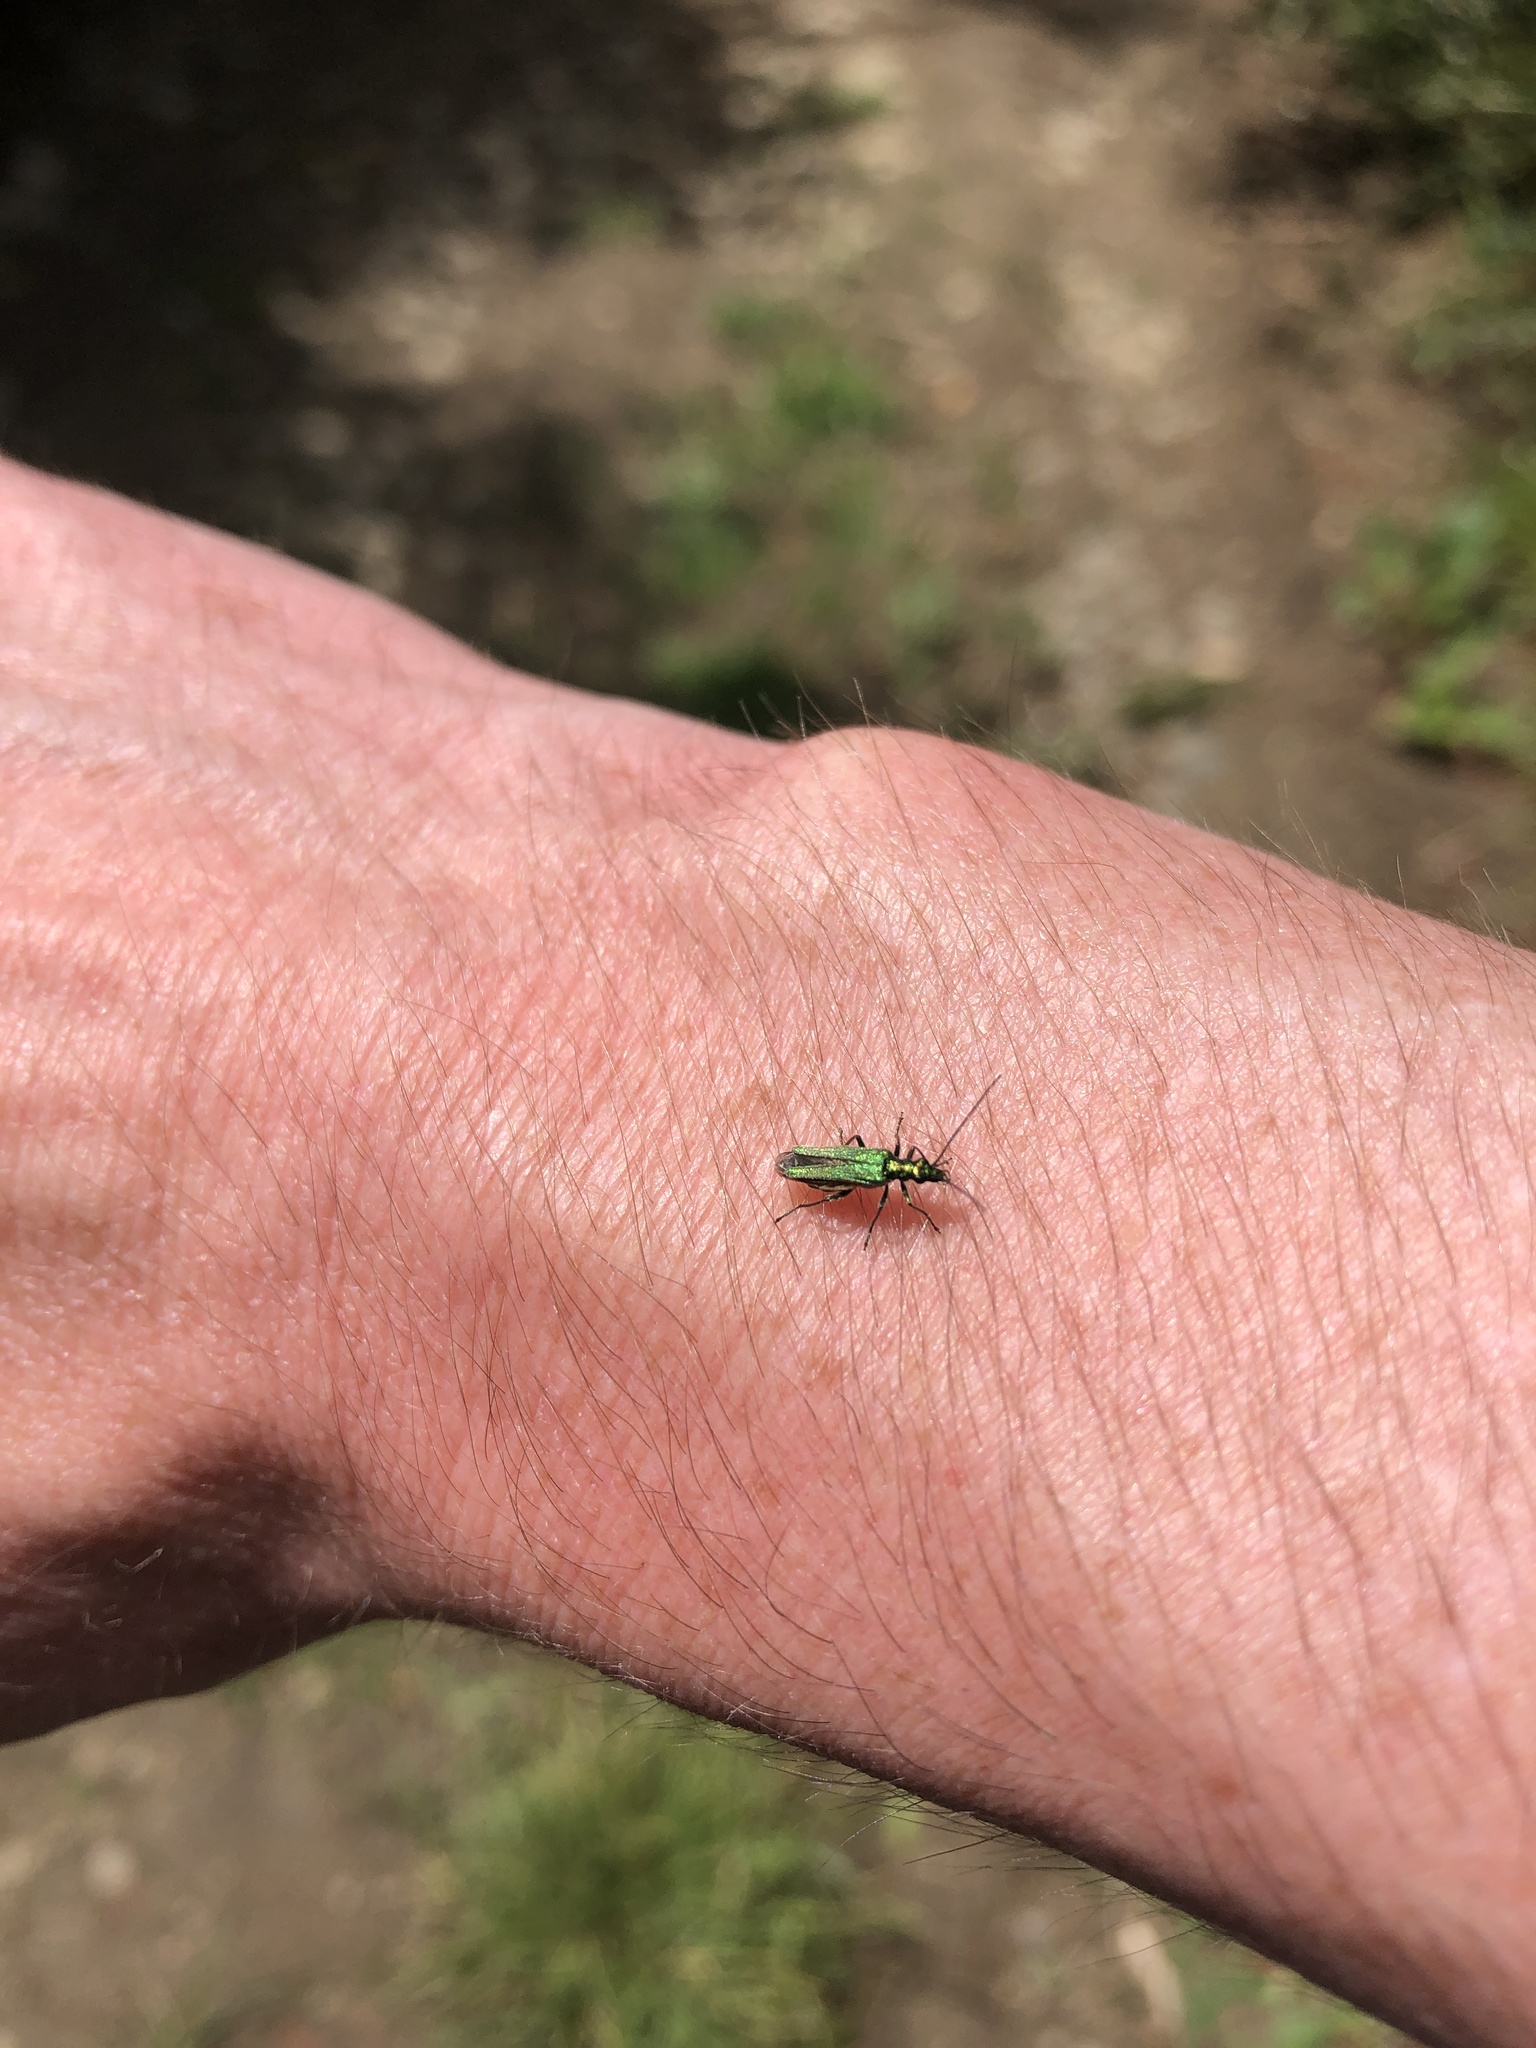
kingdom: Animalia
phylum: Arthropoda
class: Insecta
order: Coleoptera
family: Oedemeridae
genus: Oedemera
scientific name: Oedemera nobilis
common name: Swollen-thighed beetle
